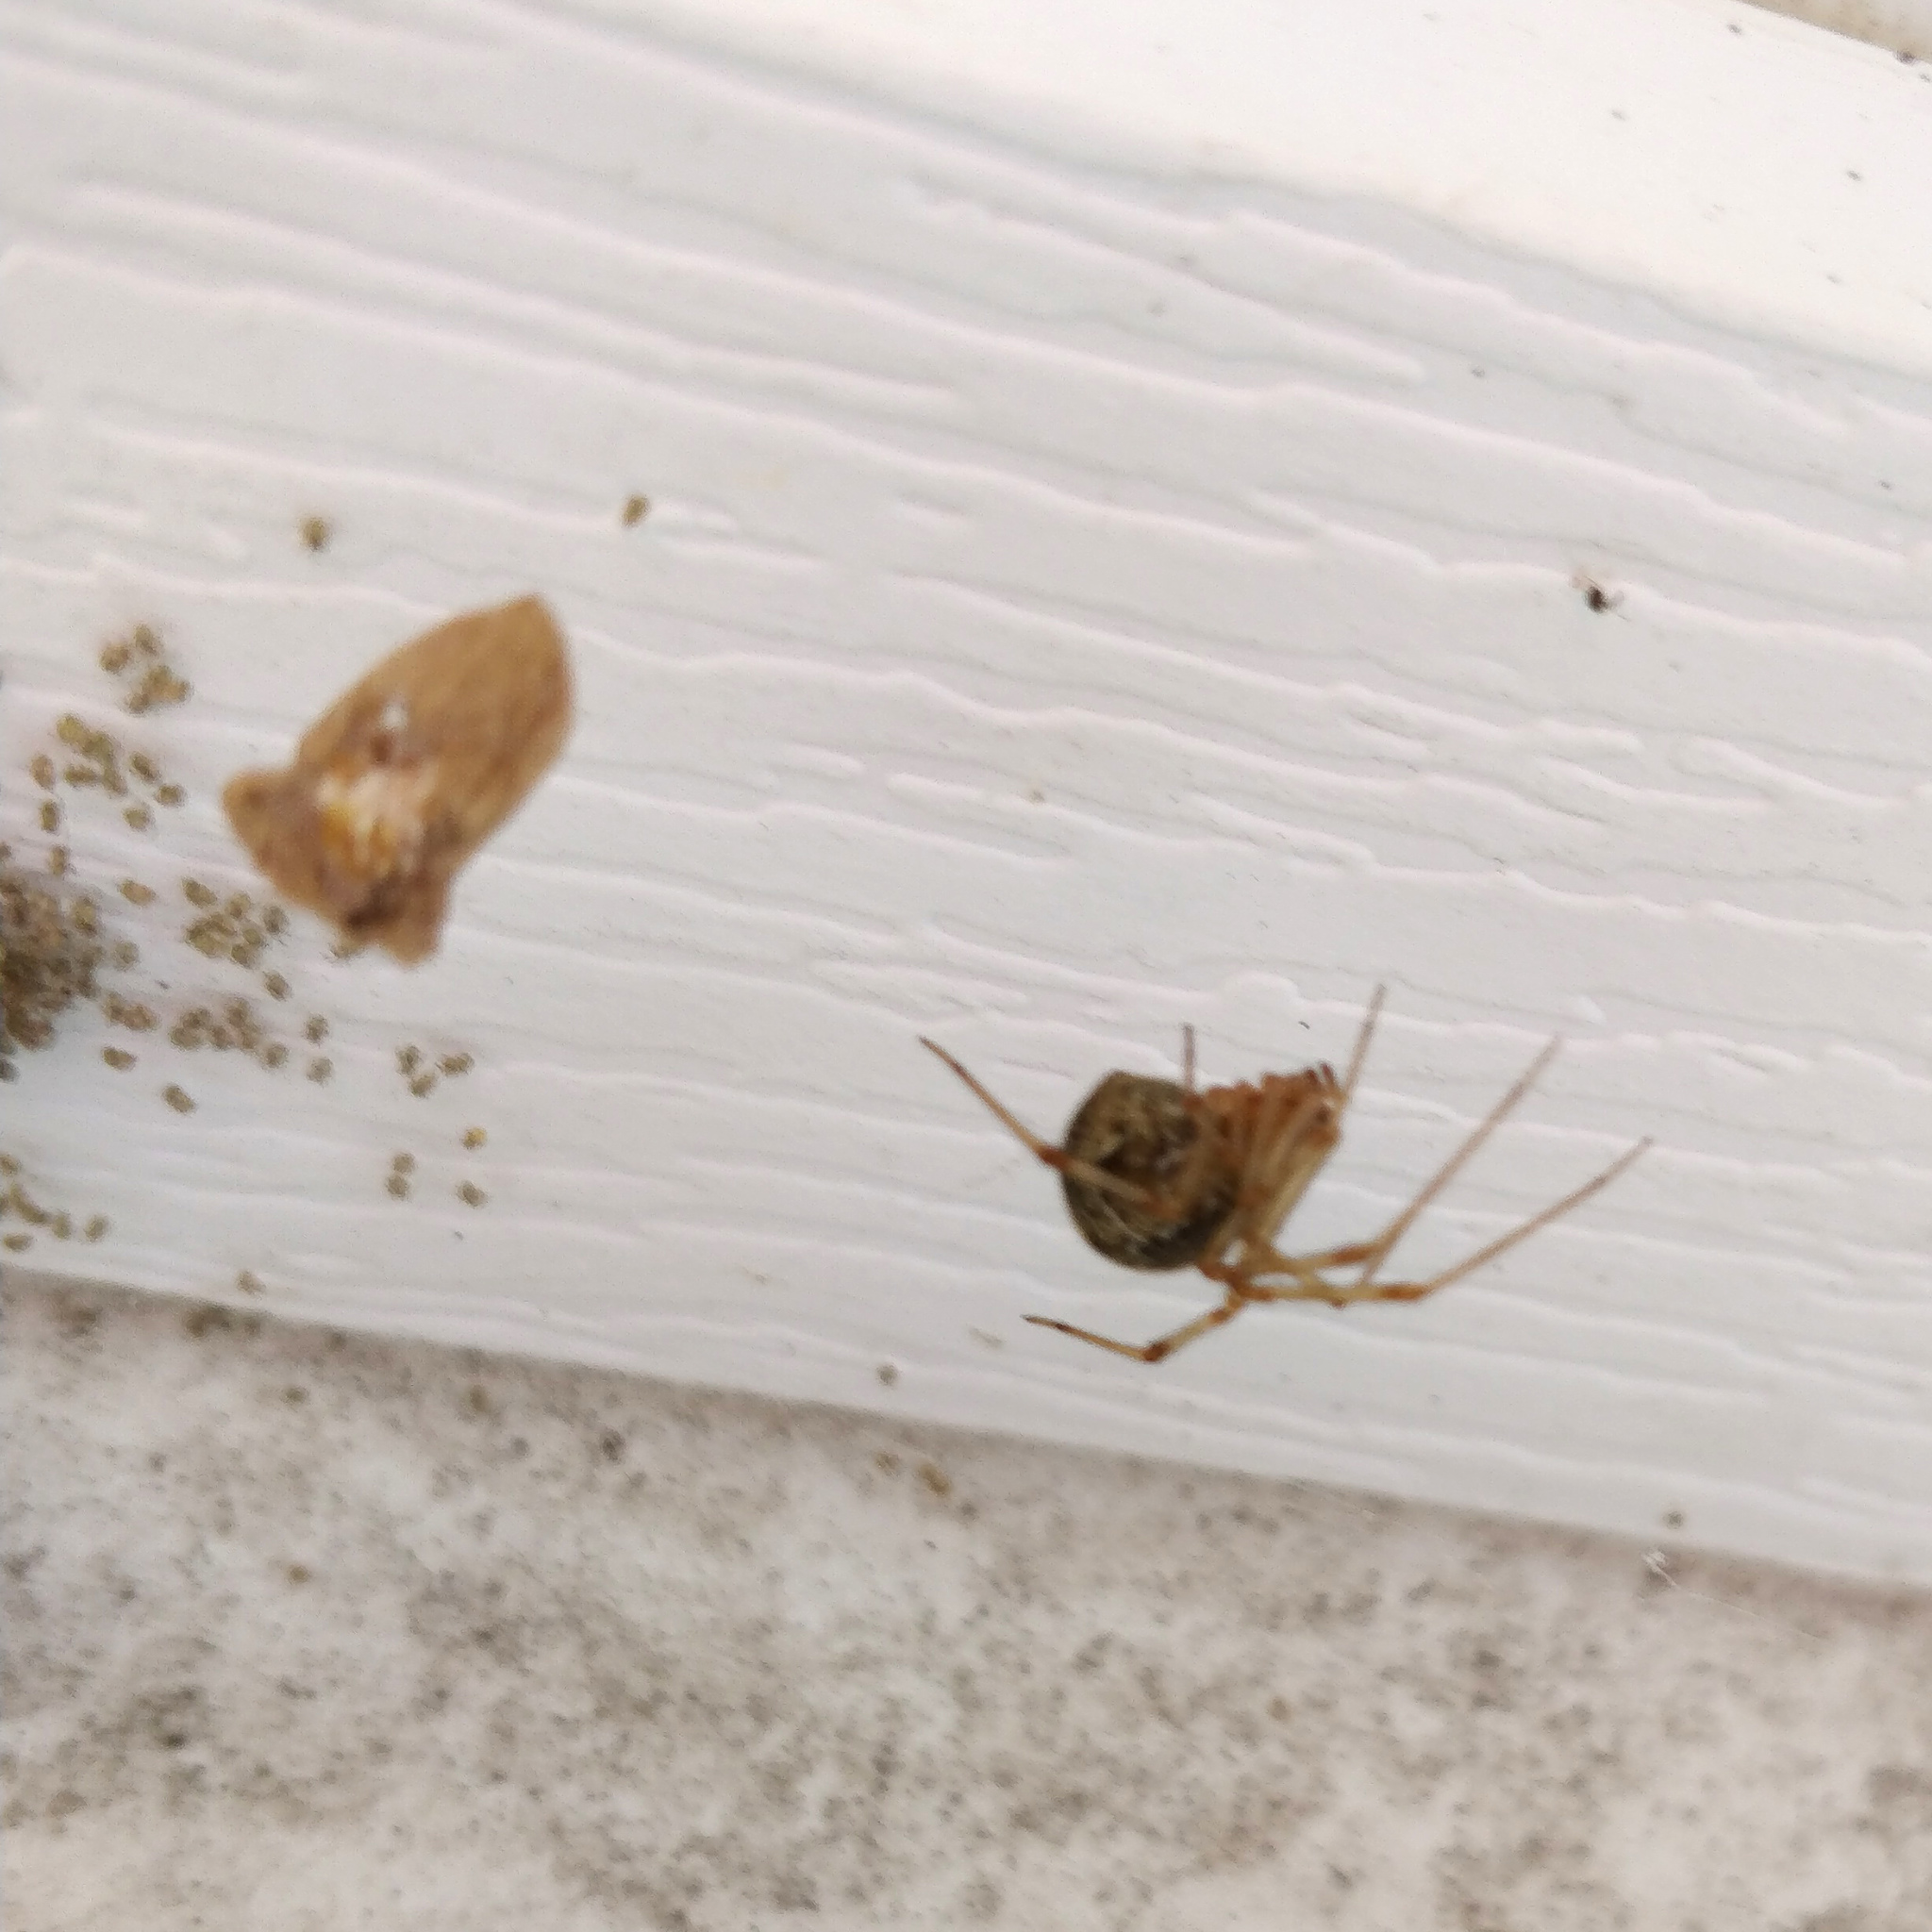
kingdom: Animalia
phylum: Arthropoda
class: Arachnida
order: Araneae
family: Theridiidae
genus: Parasteatoda
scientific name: Parasteatoda tepidariorum
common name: Common house spider
